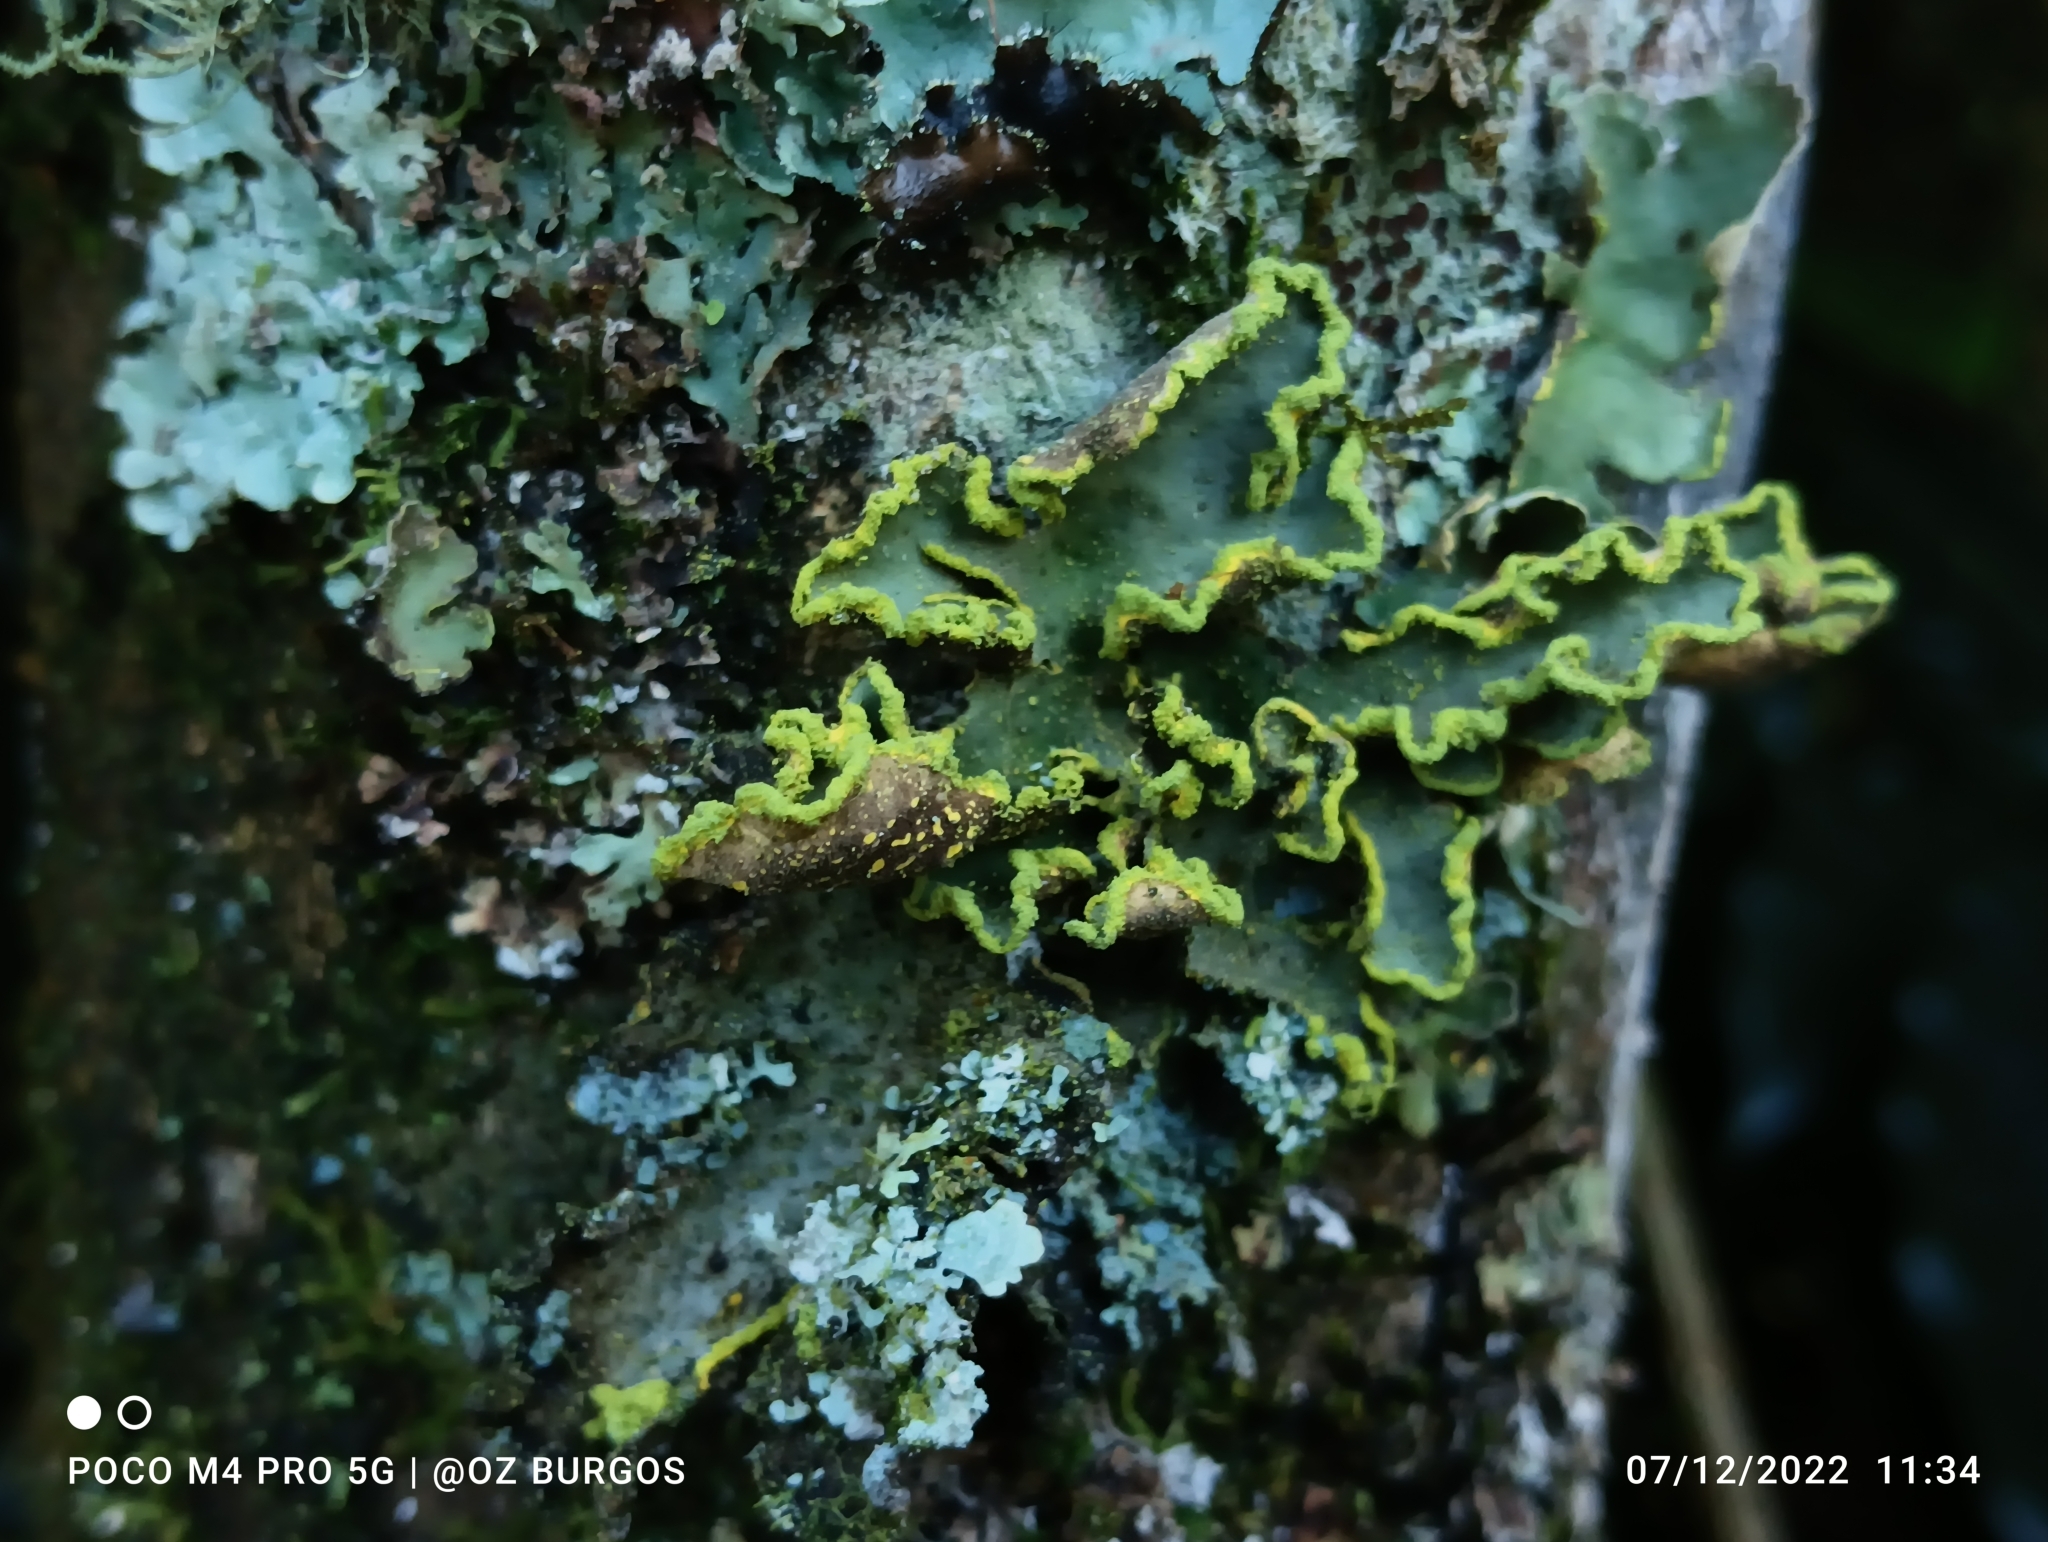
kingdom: Fungi
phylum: Ascomycota
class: Lecanoromycetes
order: Peltigerales
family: Lobariaceae
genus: Pseudocyphellaria
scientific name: Pseudocyphellaria aurata
